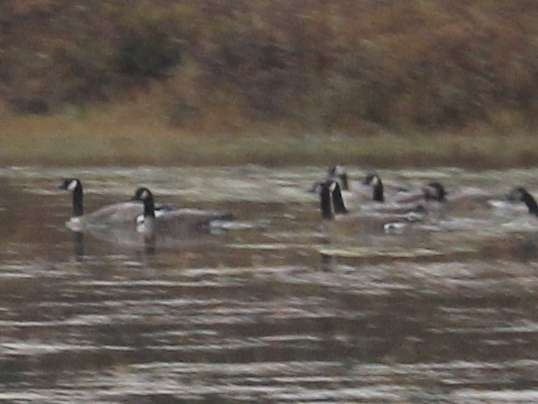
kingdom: Animalia
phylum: Chordata
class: Aves
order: Anseriformes
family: Anatidae
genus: Branta
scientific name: Branta canadensis
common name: Canada goose
